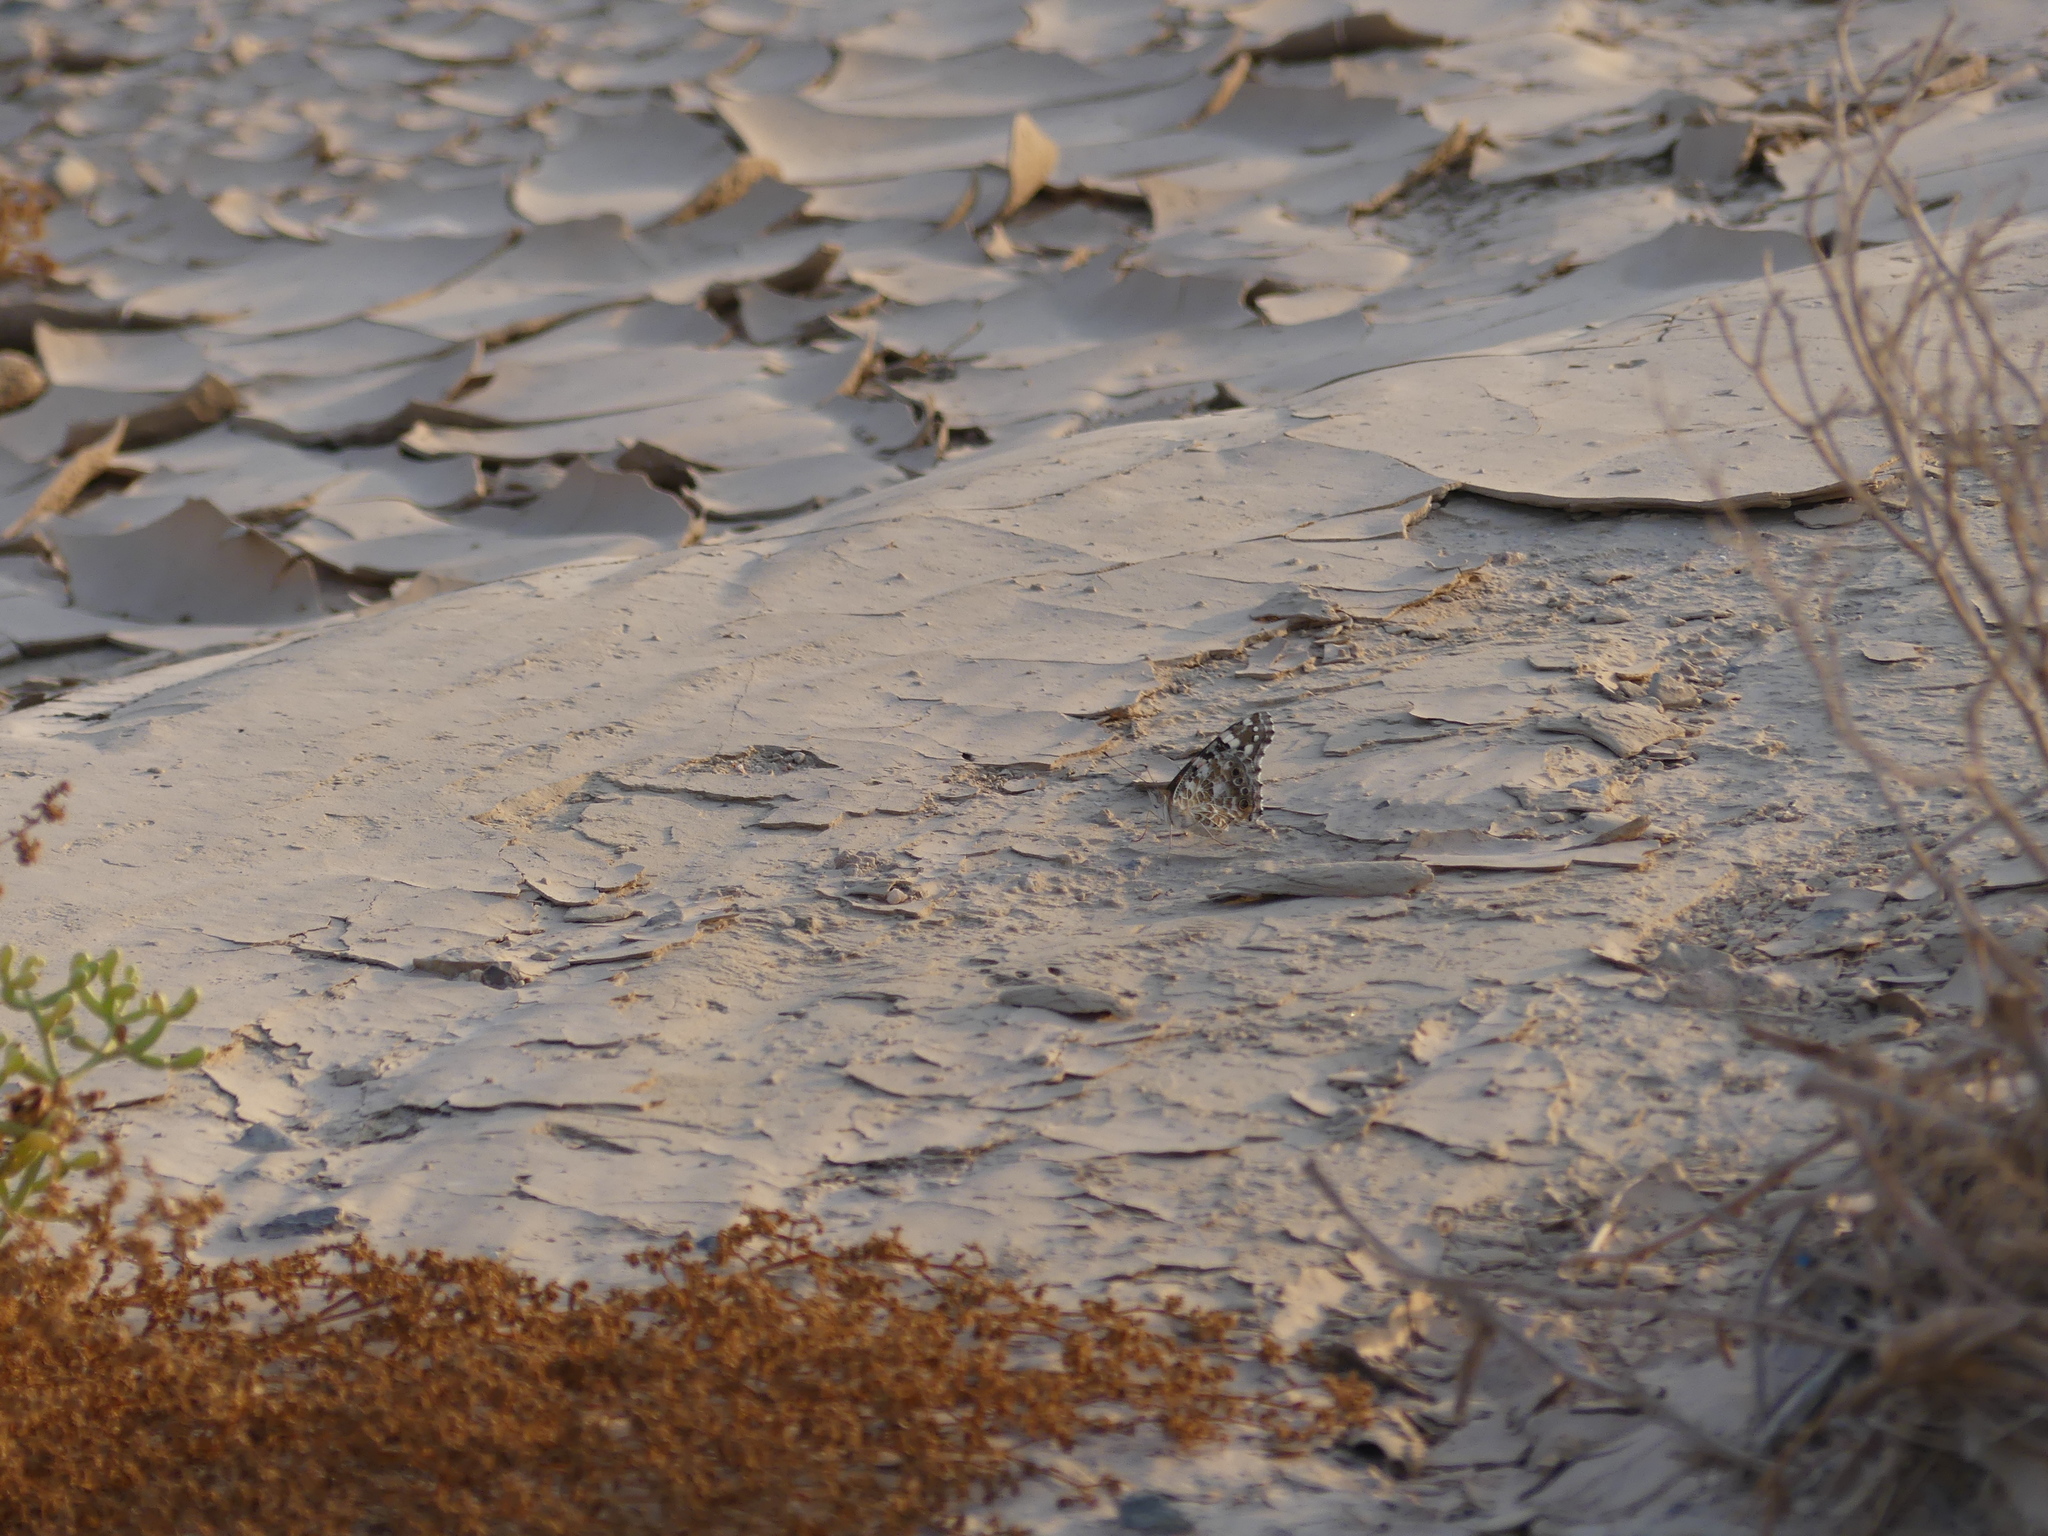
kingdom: Animalia
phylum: Arthropoda
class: Insecta
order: Lepidoptera
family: Nymphalidae
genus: Vanessa
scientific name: Vanessa cardui
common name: Painted lady
